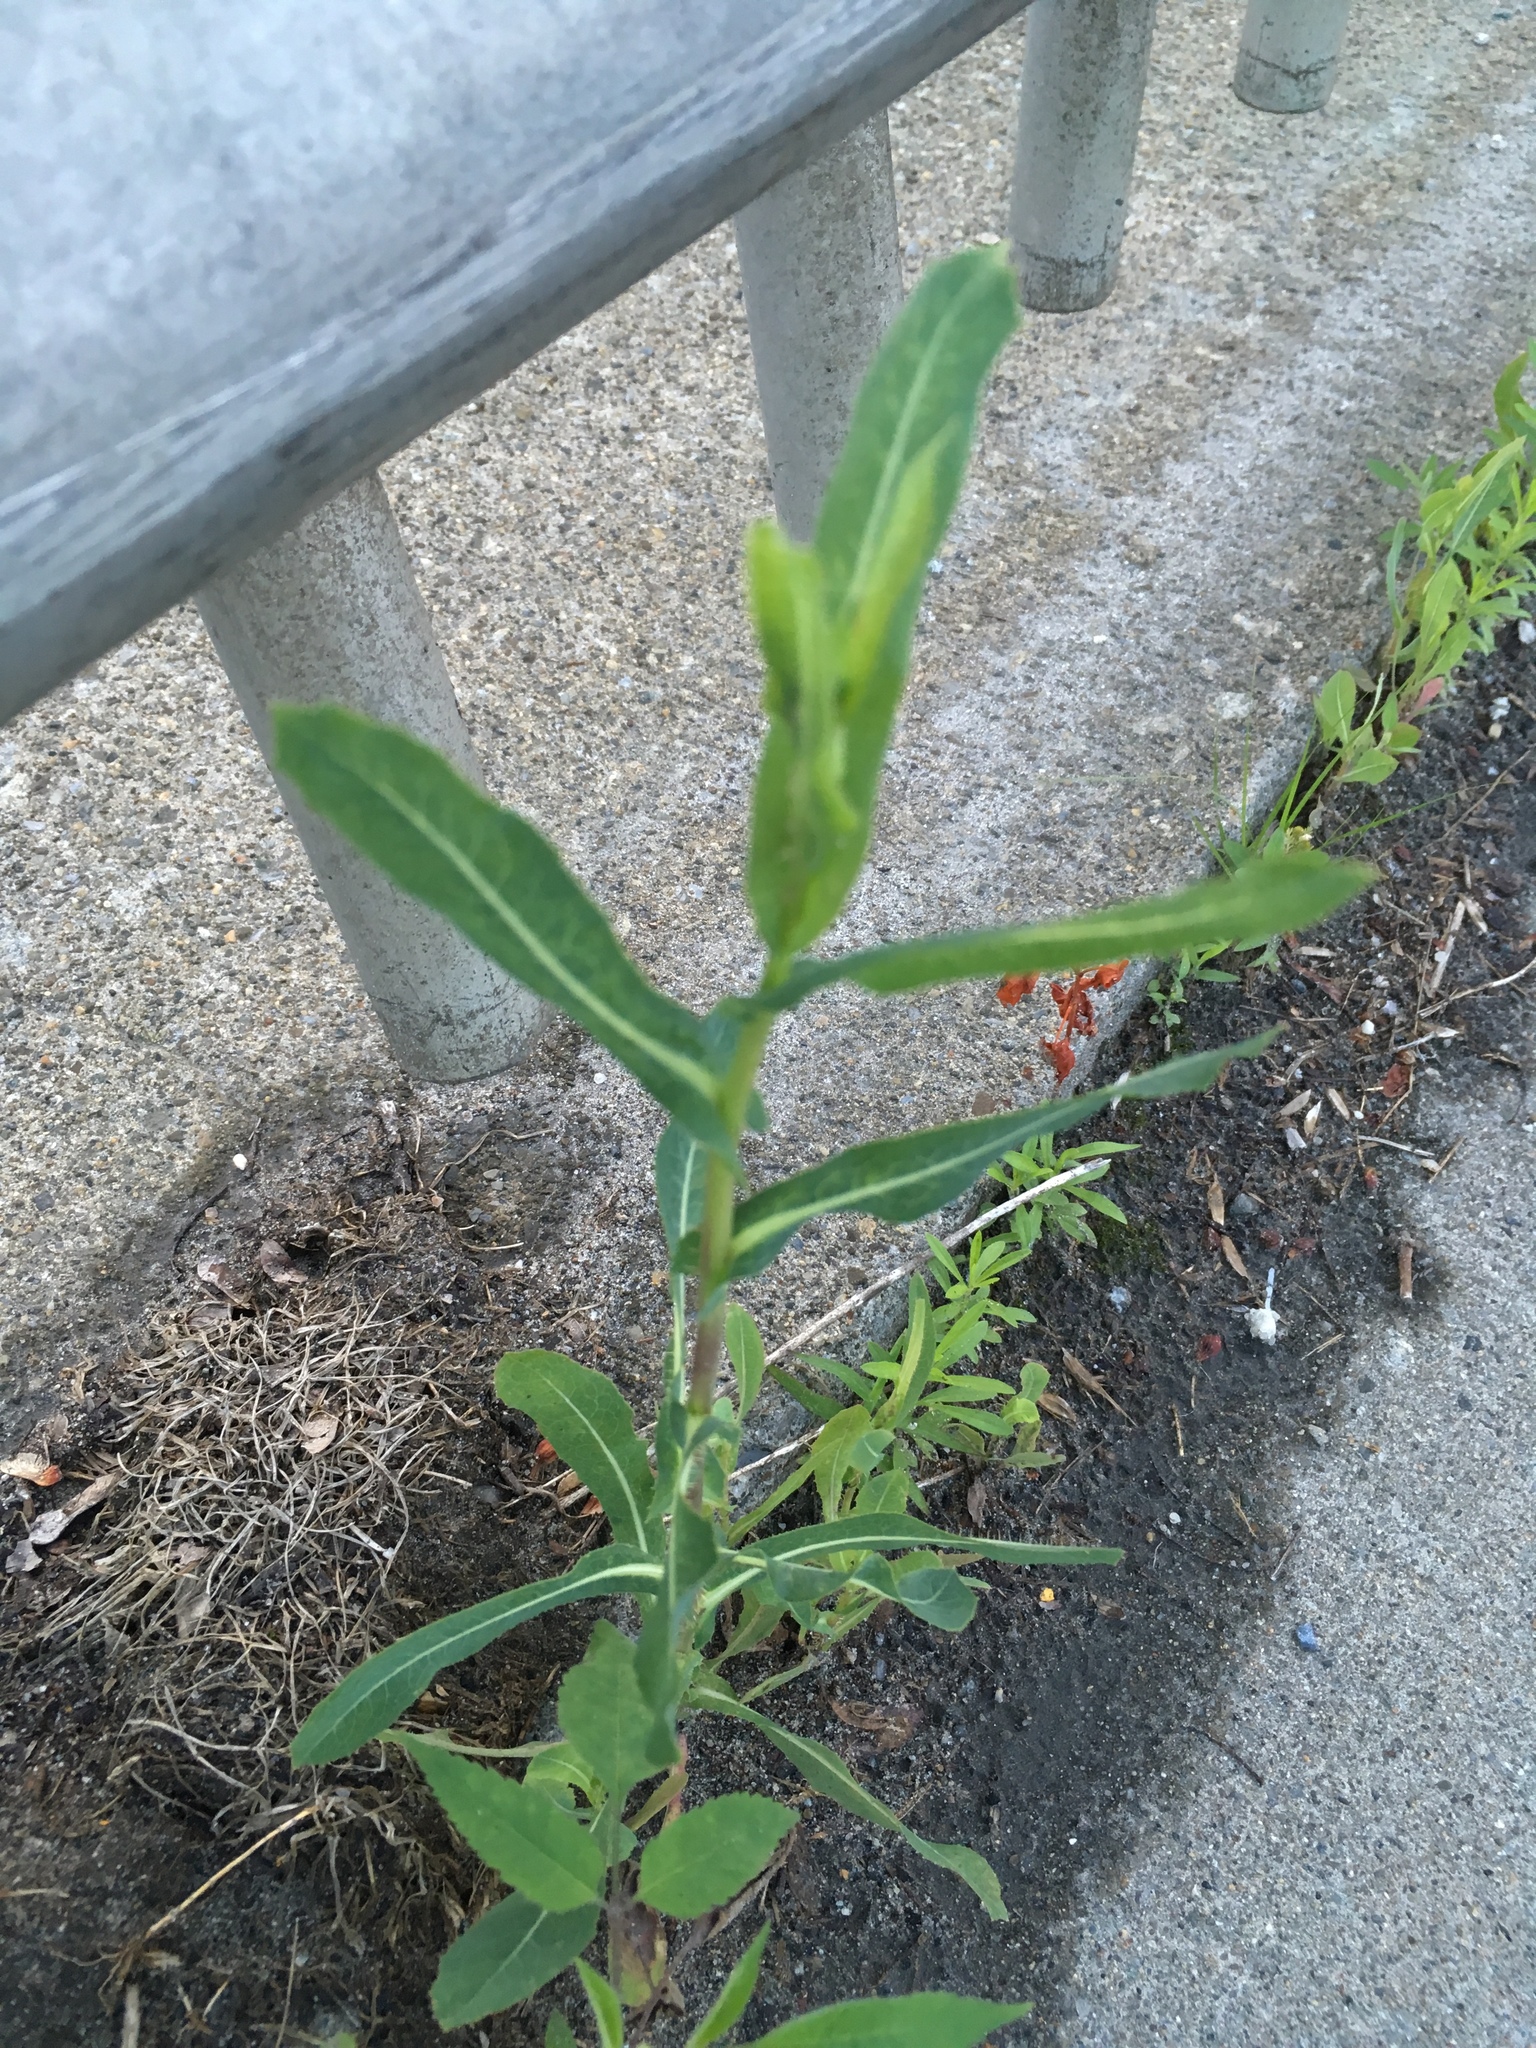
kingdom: Plantae
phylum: Tracheophyta
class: Magnoliopsida
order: Asterales
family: Asteraceae
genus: Lactuca
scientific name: Lactuca serriola
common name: Prickly lettuce
